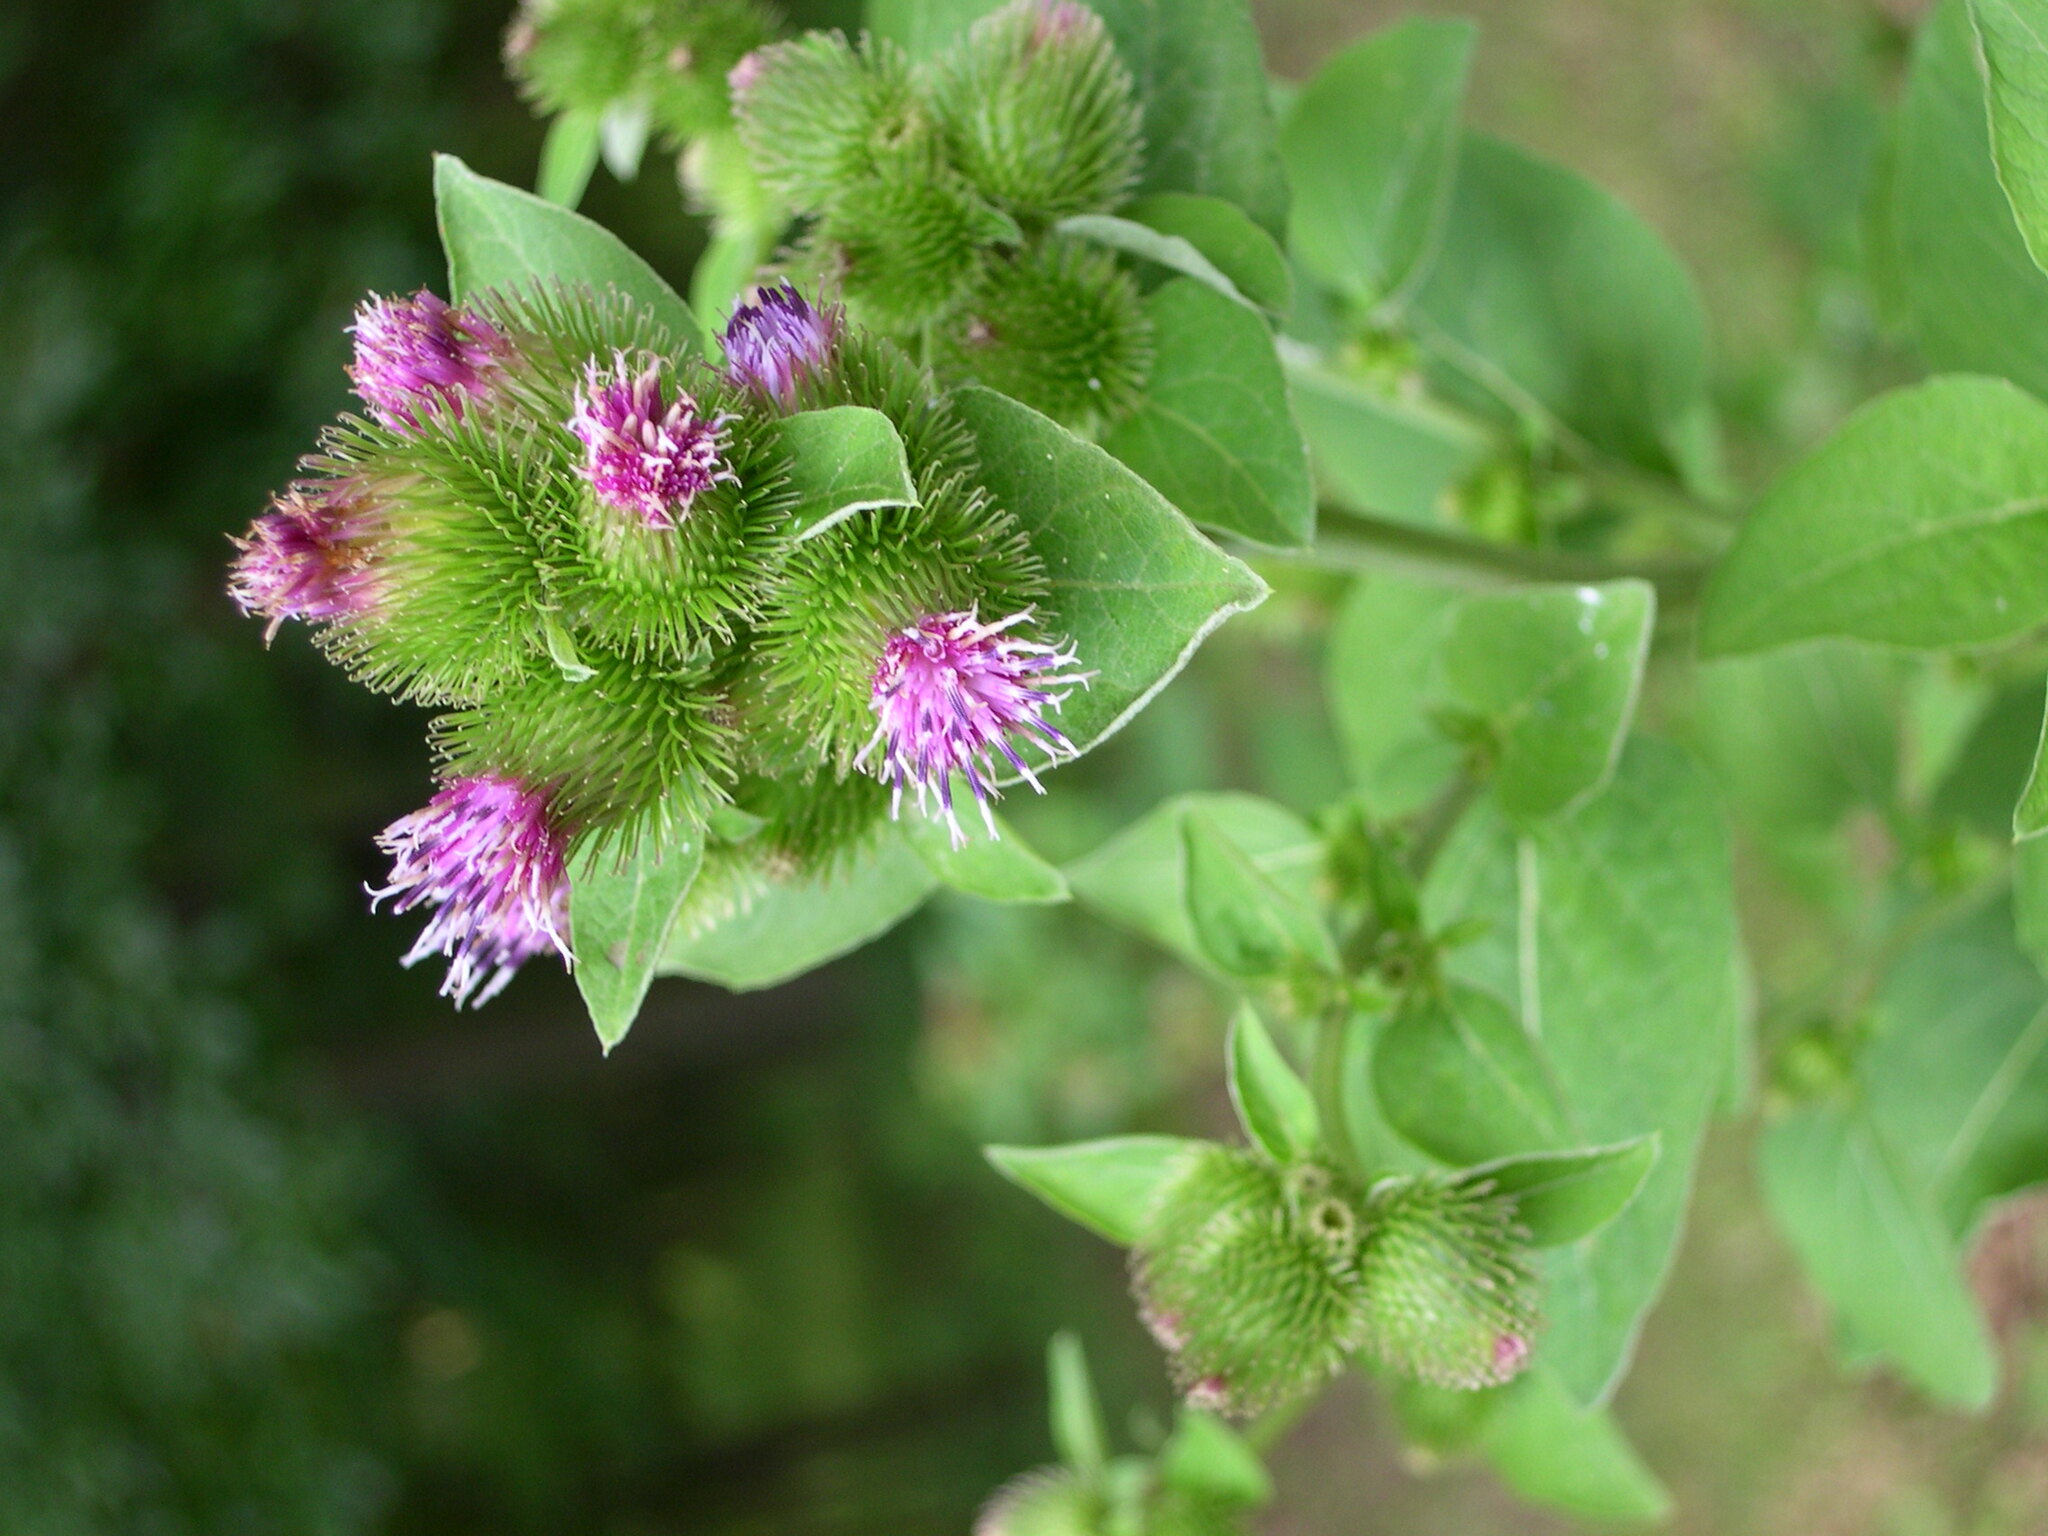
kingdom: Plantae
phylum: Tracheophyta
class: Magnoliopsida
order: Asterales
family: Asteraceae
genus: Arctium
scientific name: Arctium minus
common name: Lesser burdock
